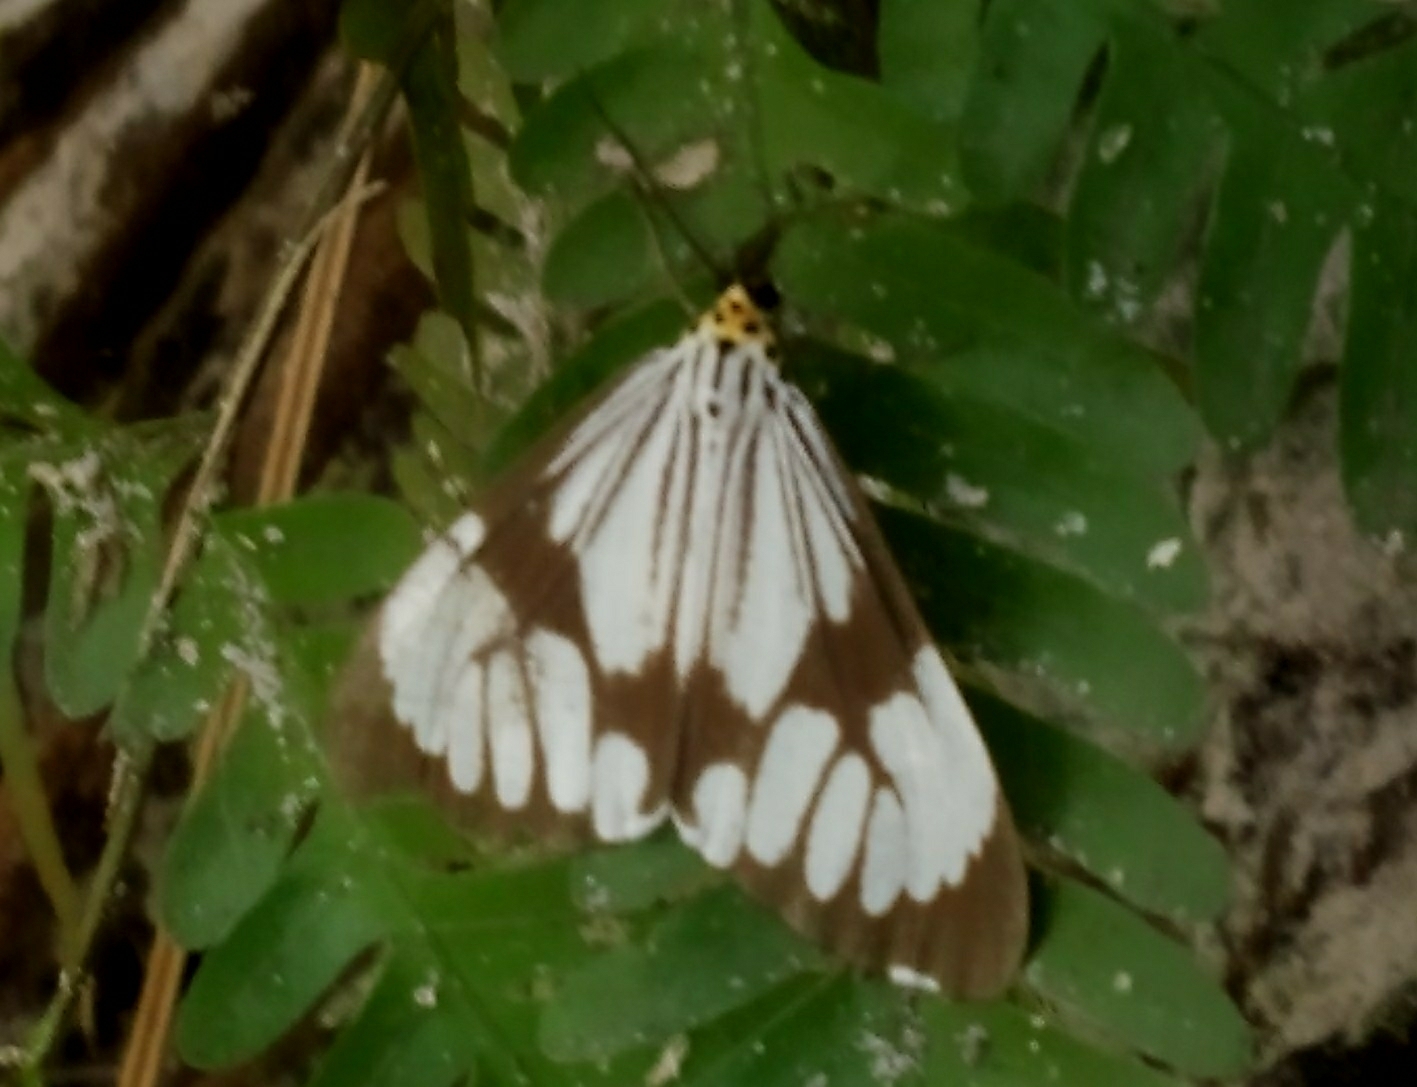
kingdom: Animalia
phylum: Arthropoda
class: Insecta
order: Lepidoptera
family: Erebidae
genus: Nyctemera
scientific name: Nyctemera adversata
